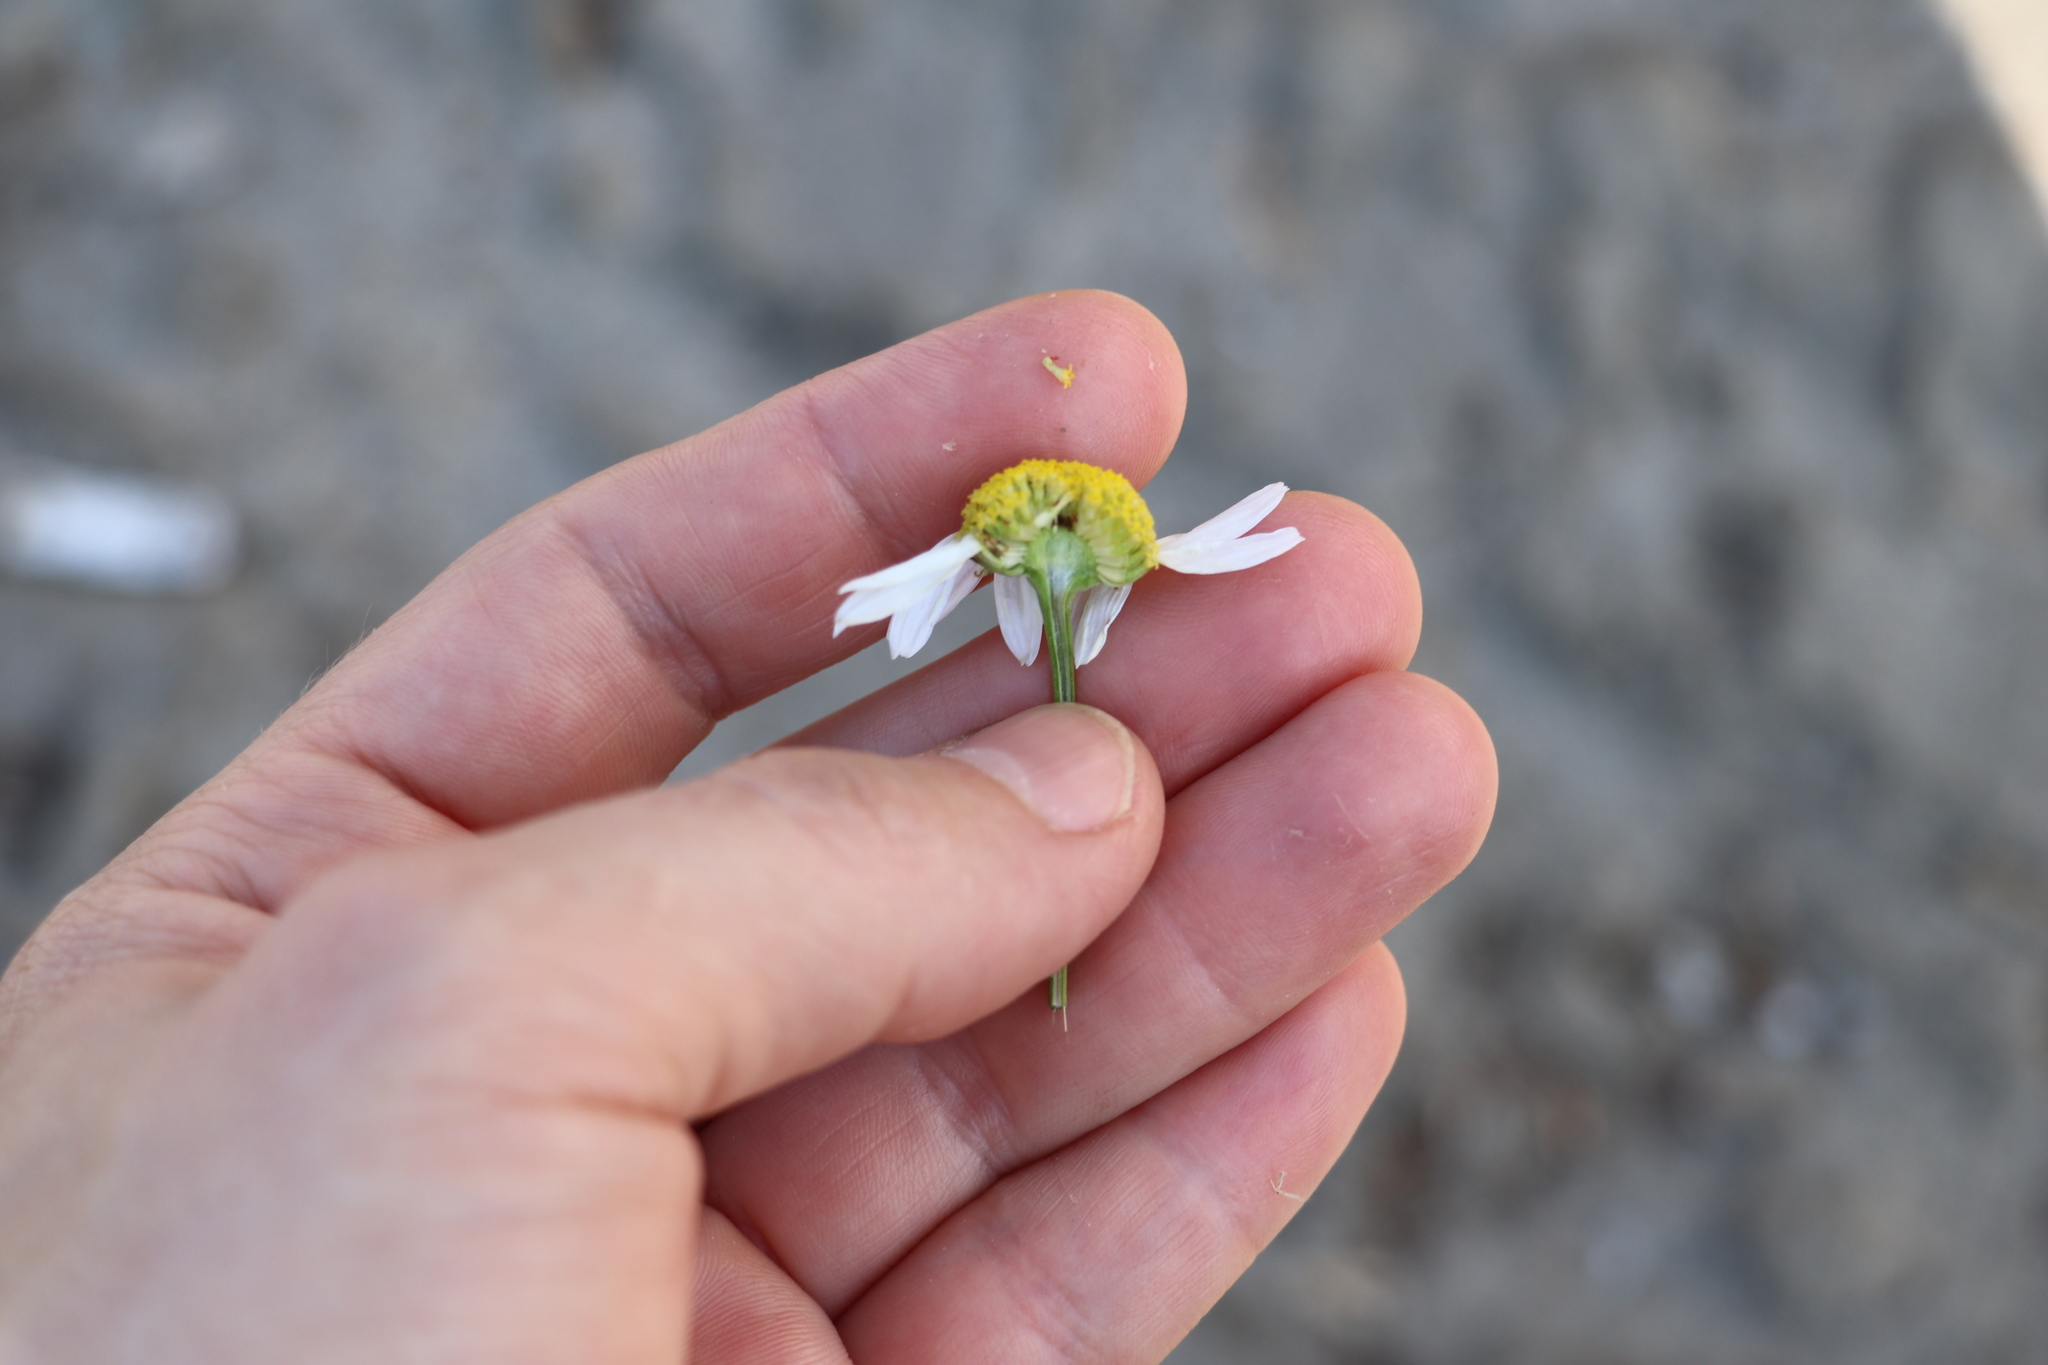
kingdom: Plantae
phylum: Tracheophyta
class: Magnoliopsida
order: Asterales
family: Asteraceae
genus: Tripleurospermum
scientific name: Tripleurospermum inodorum
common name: Scentless mayweed
